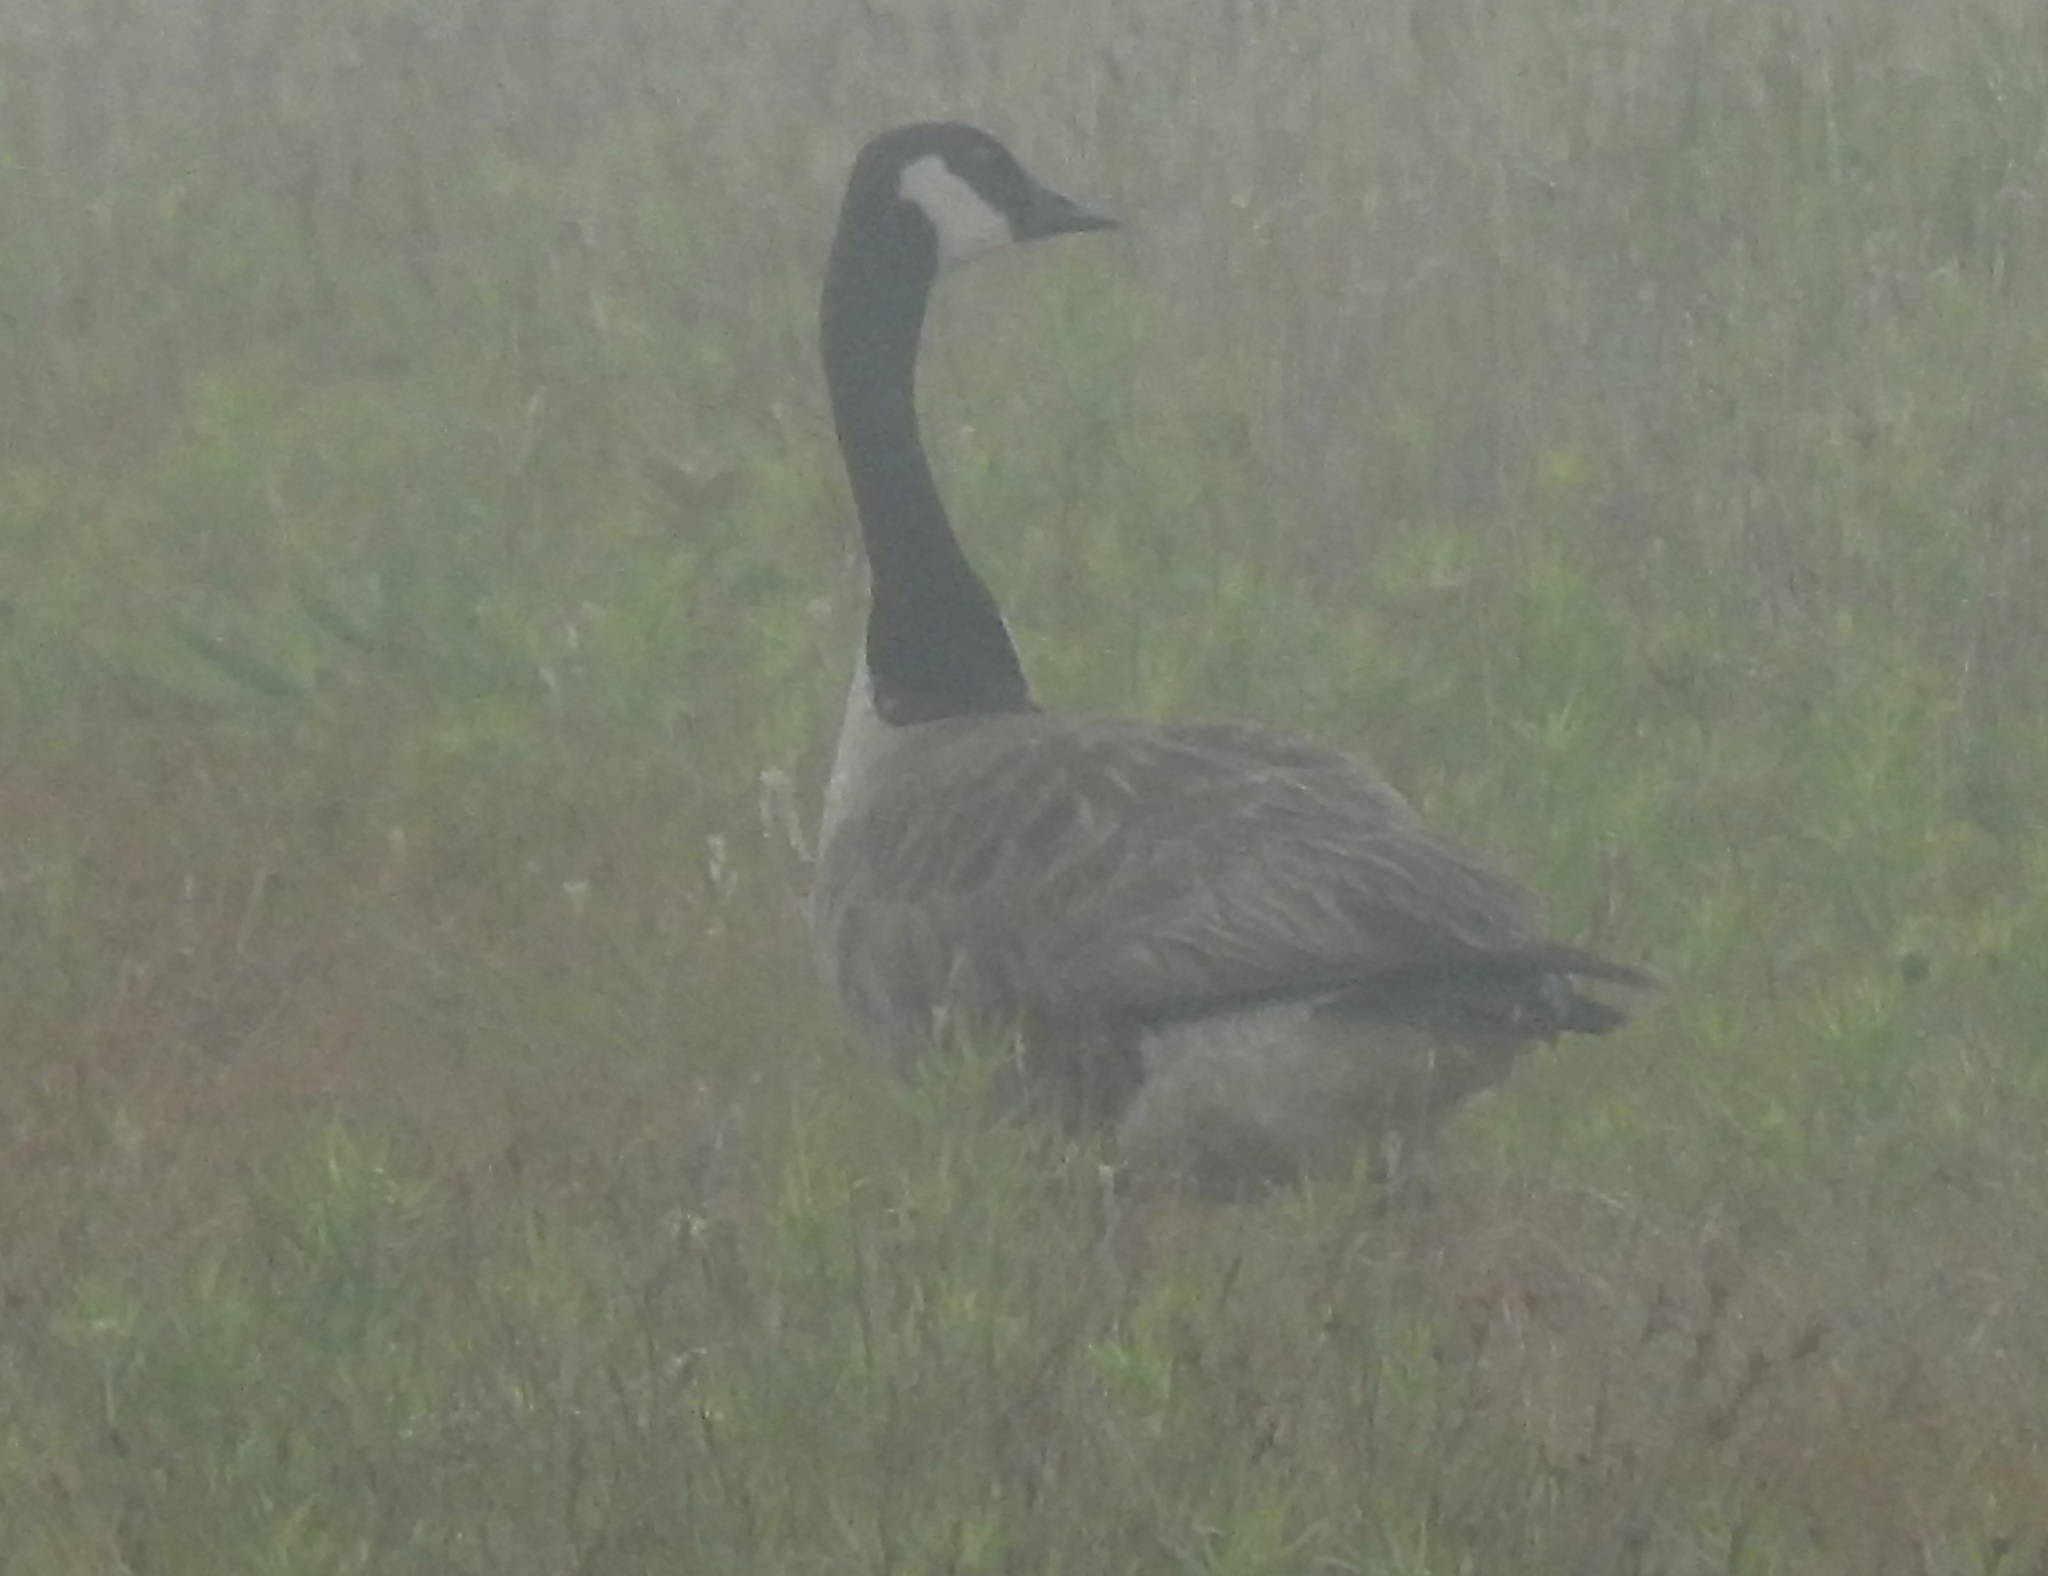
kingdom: Animalia
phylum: Chordata
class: Aves
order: Anseriformes
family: Anatidae
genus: Branta
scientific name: Branta canadensis
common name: Canada goose
